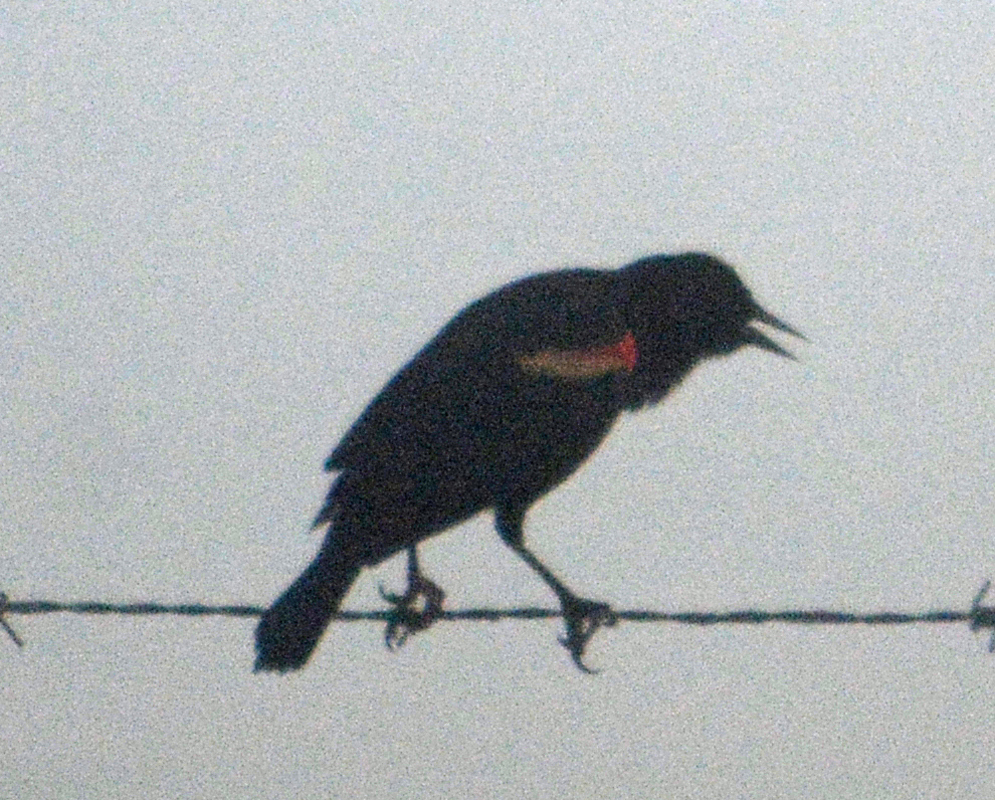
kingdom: Animalia
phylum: Chordata
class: Aves
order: Passeriformes
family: Icteridae
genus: Agelaius
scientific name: Agelaius phoeniceus
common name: Red-winged blackbird
